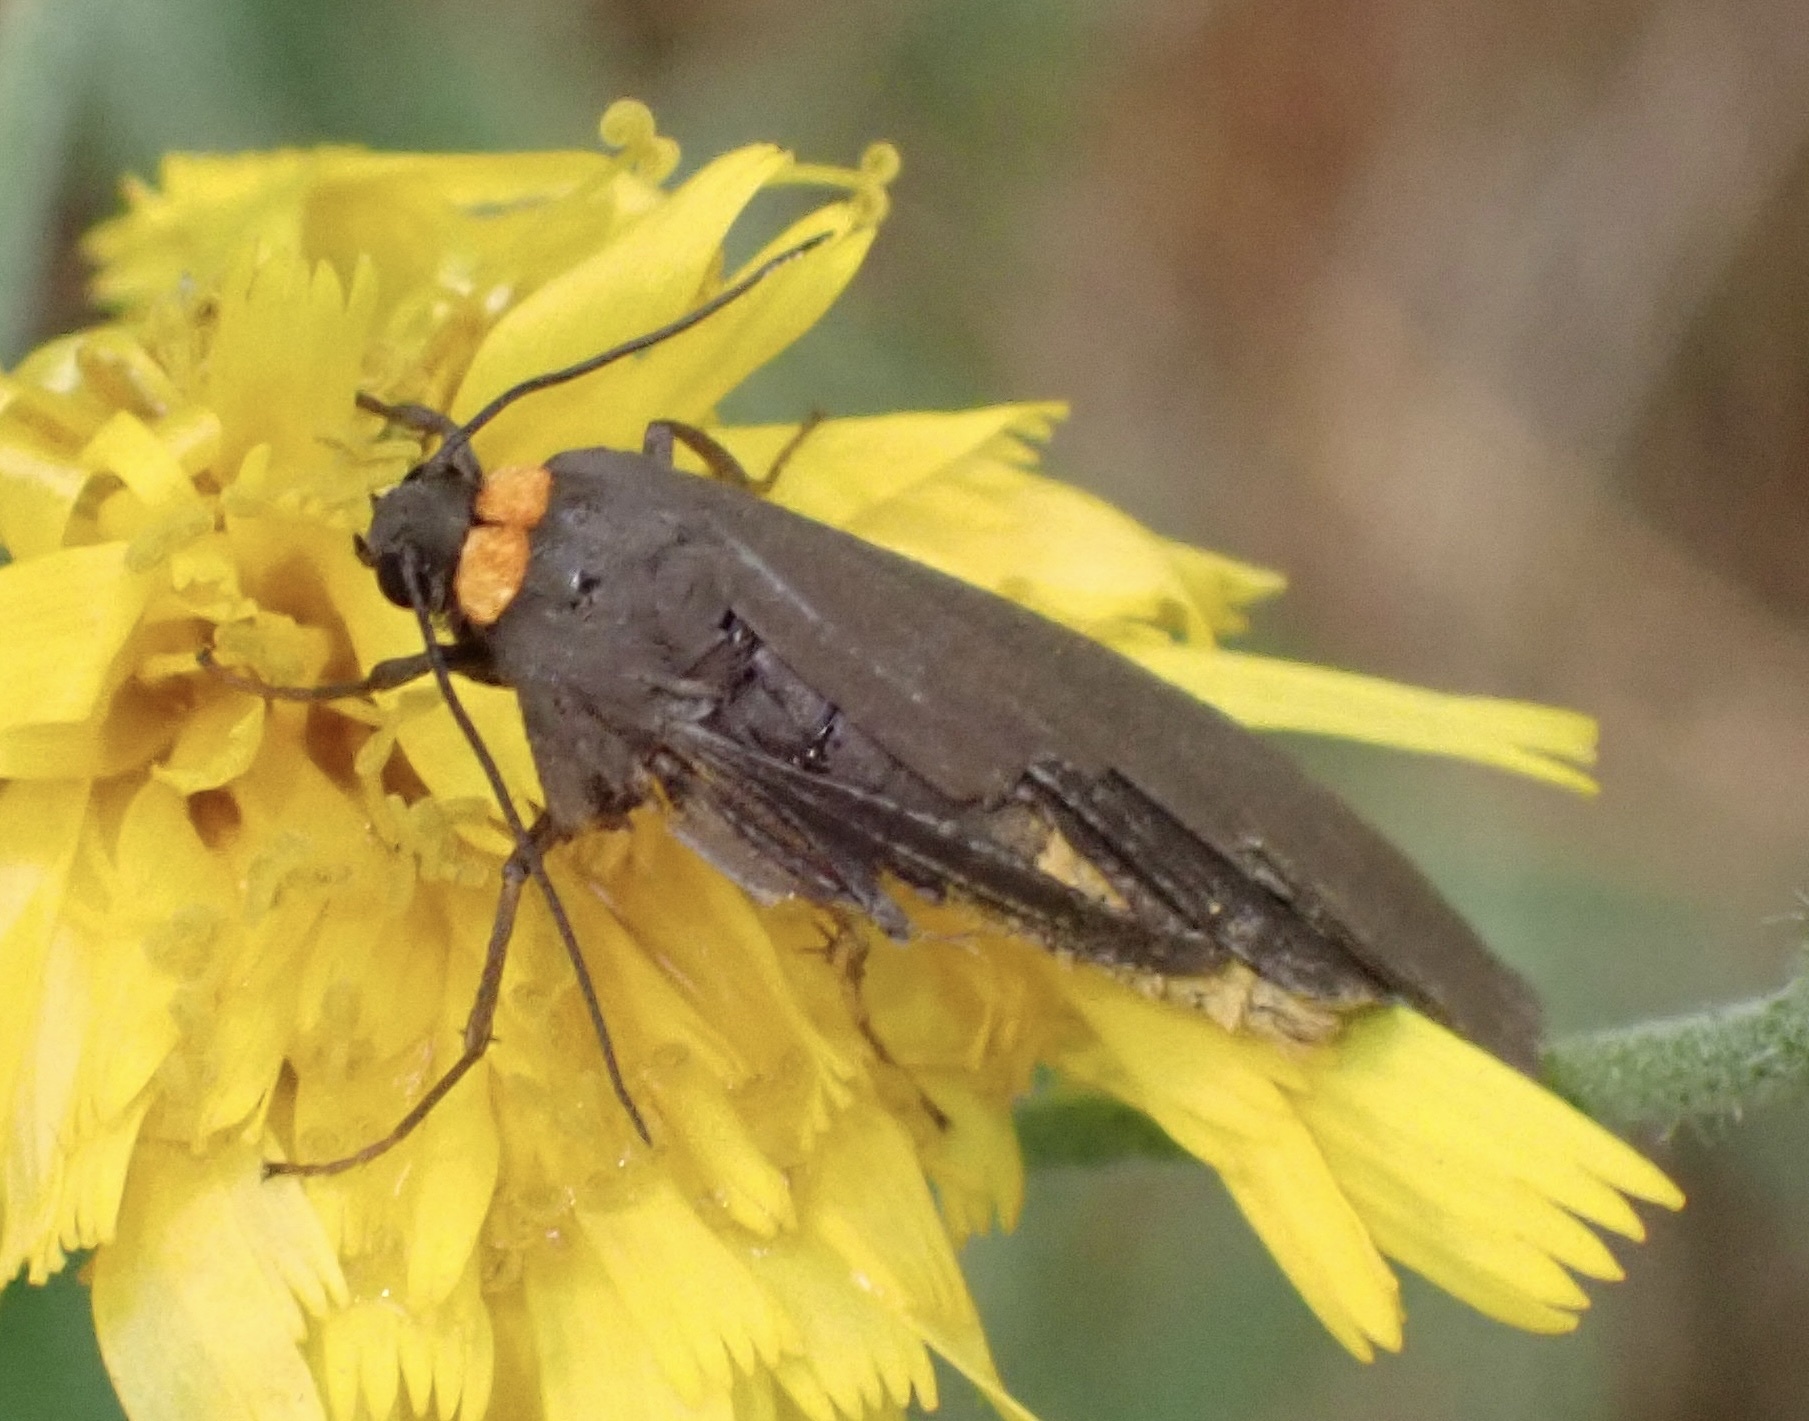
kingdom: Animalia
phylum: Arthropoda
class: Insecta
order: Lepidoptera
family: Erebidae
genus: Atolmis
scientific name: Atolmis rubricollis
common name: Red-necked footman
